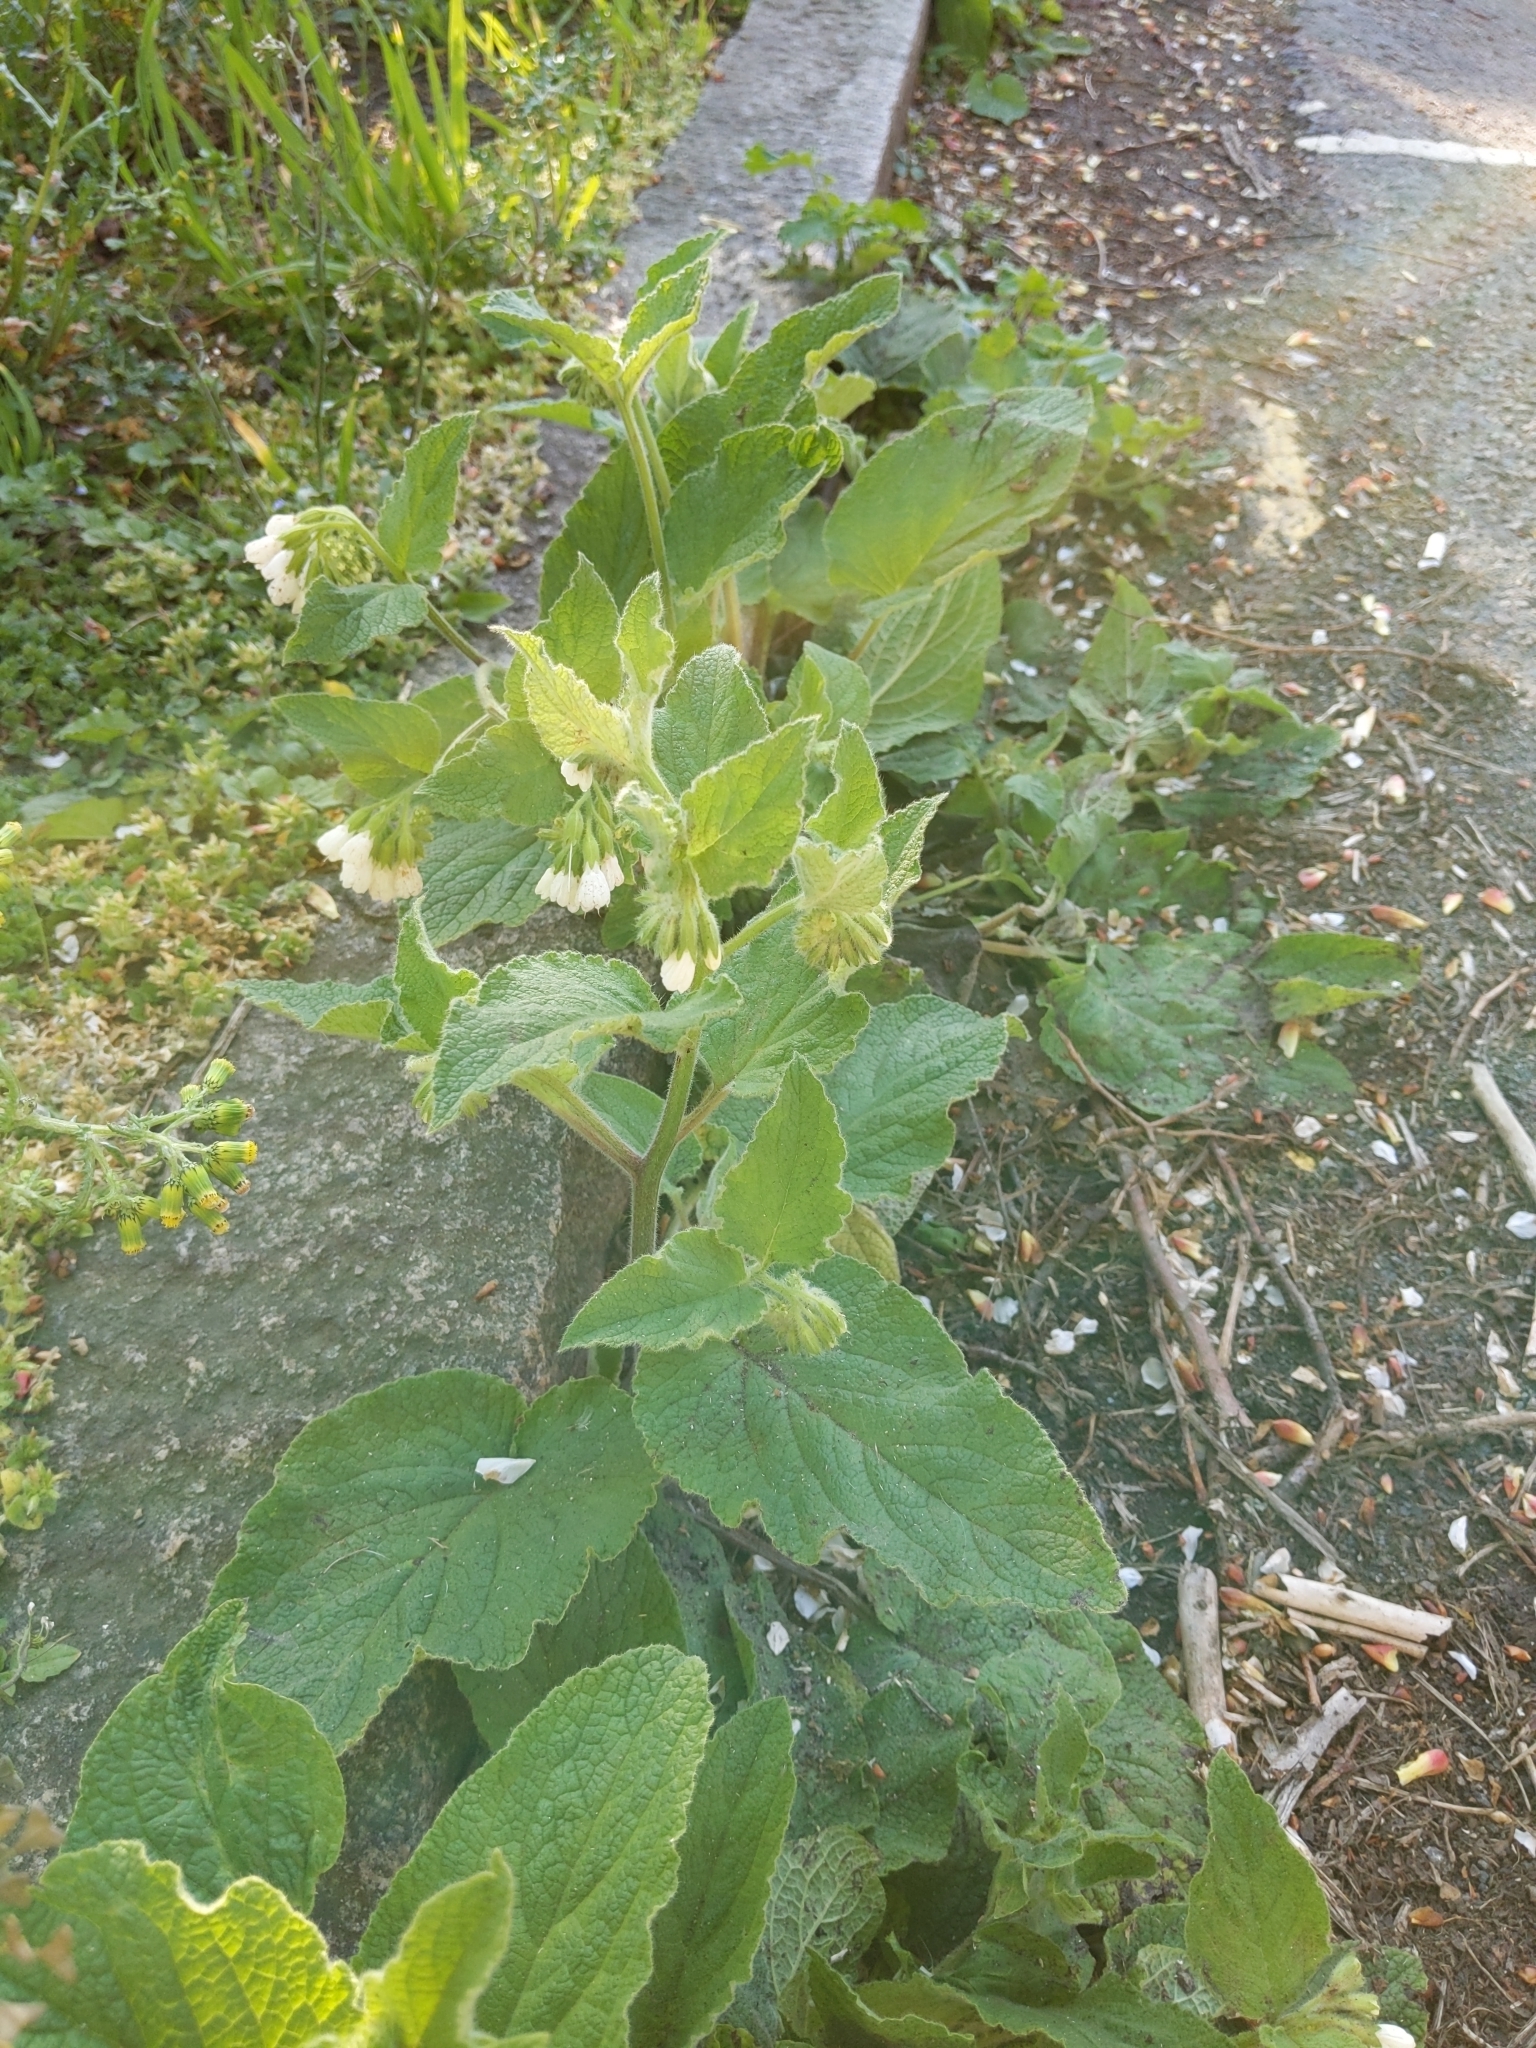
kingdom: Plantae
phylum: Tracheophyta
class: Magnoliopsida
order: Boraginales
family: Boraginaceae
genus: Symphytum
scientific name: Symphytum orientale
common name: White comfrey
